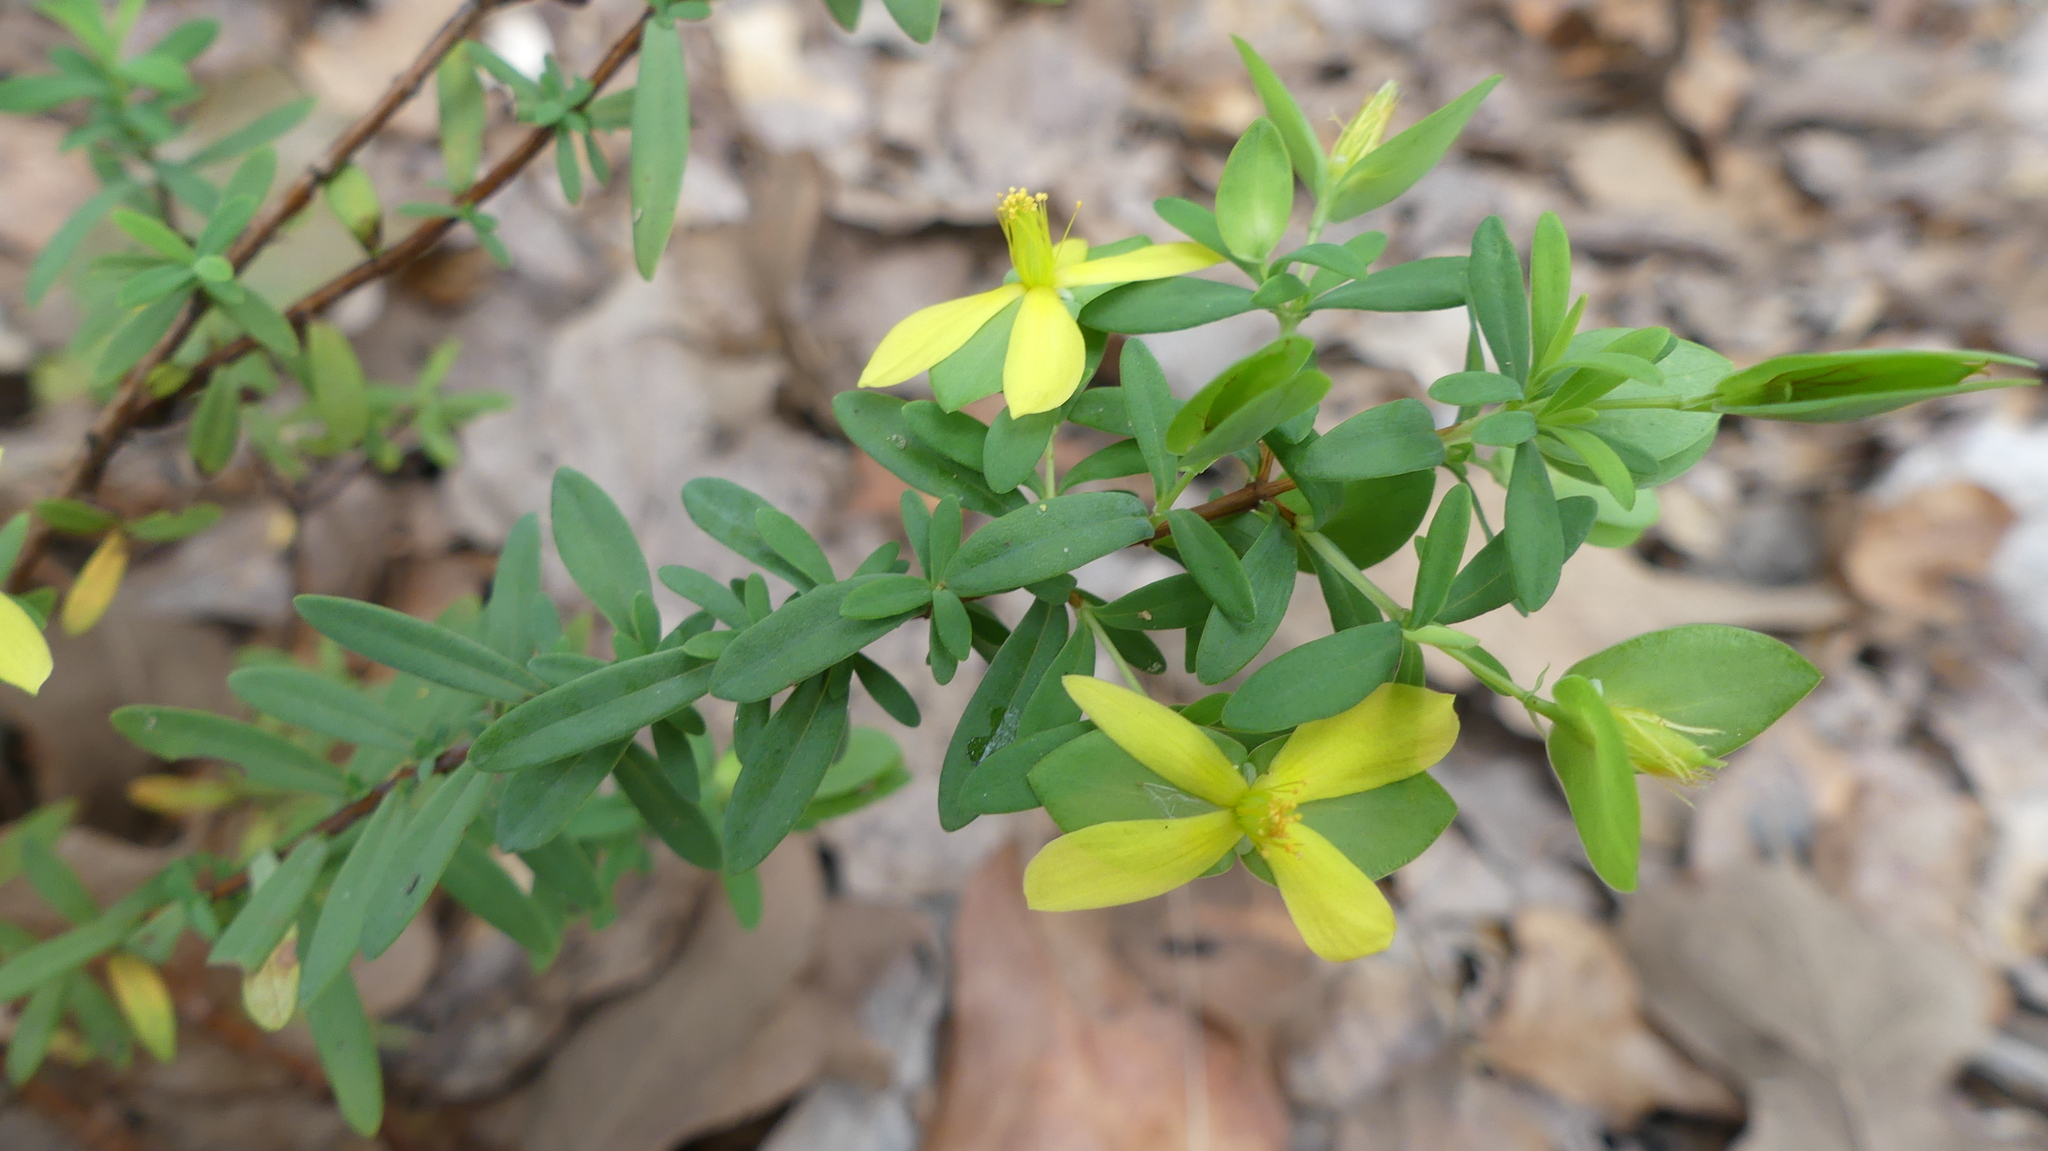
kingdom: Plantae
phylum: Tracheophyta
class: Magnoliopsida
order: Malpighiales
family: Hypericaceae
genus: Hypericum
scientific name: Hypericum hypericoides
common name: St. andrew's cross
